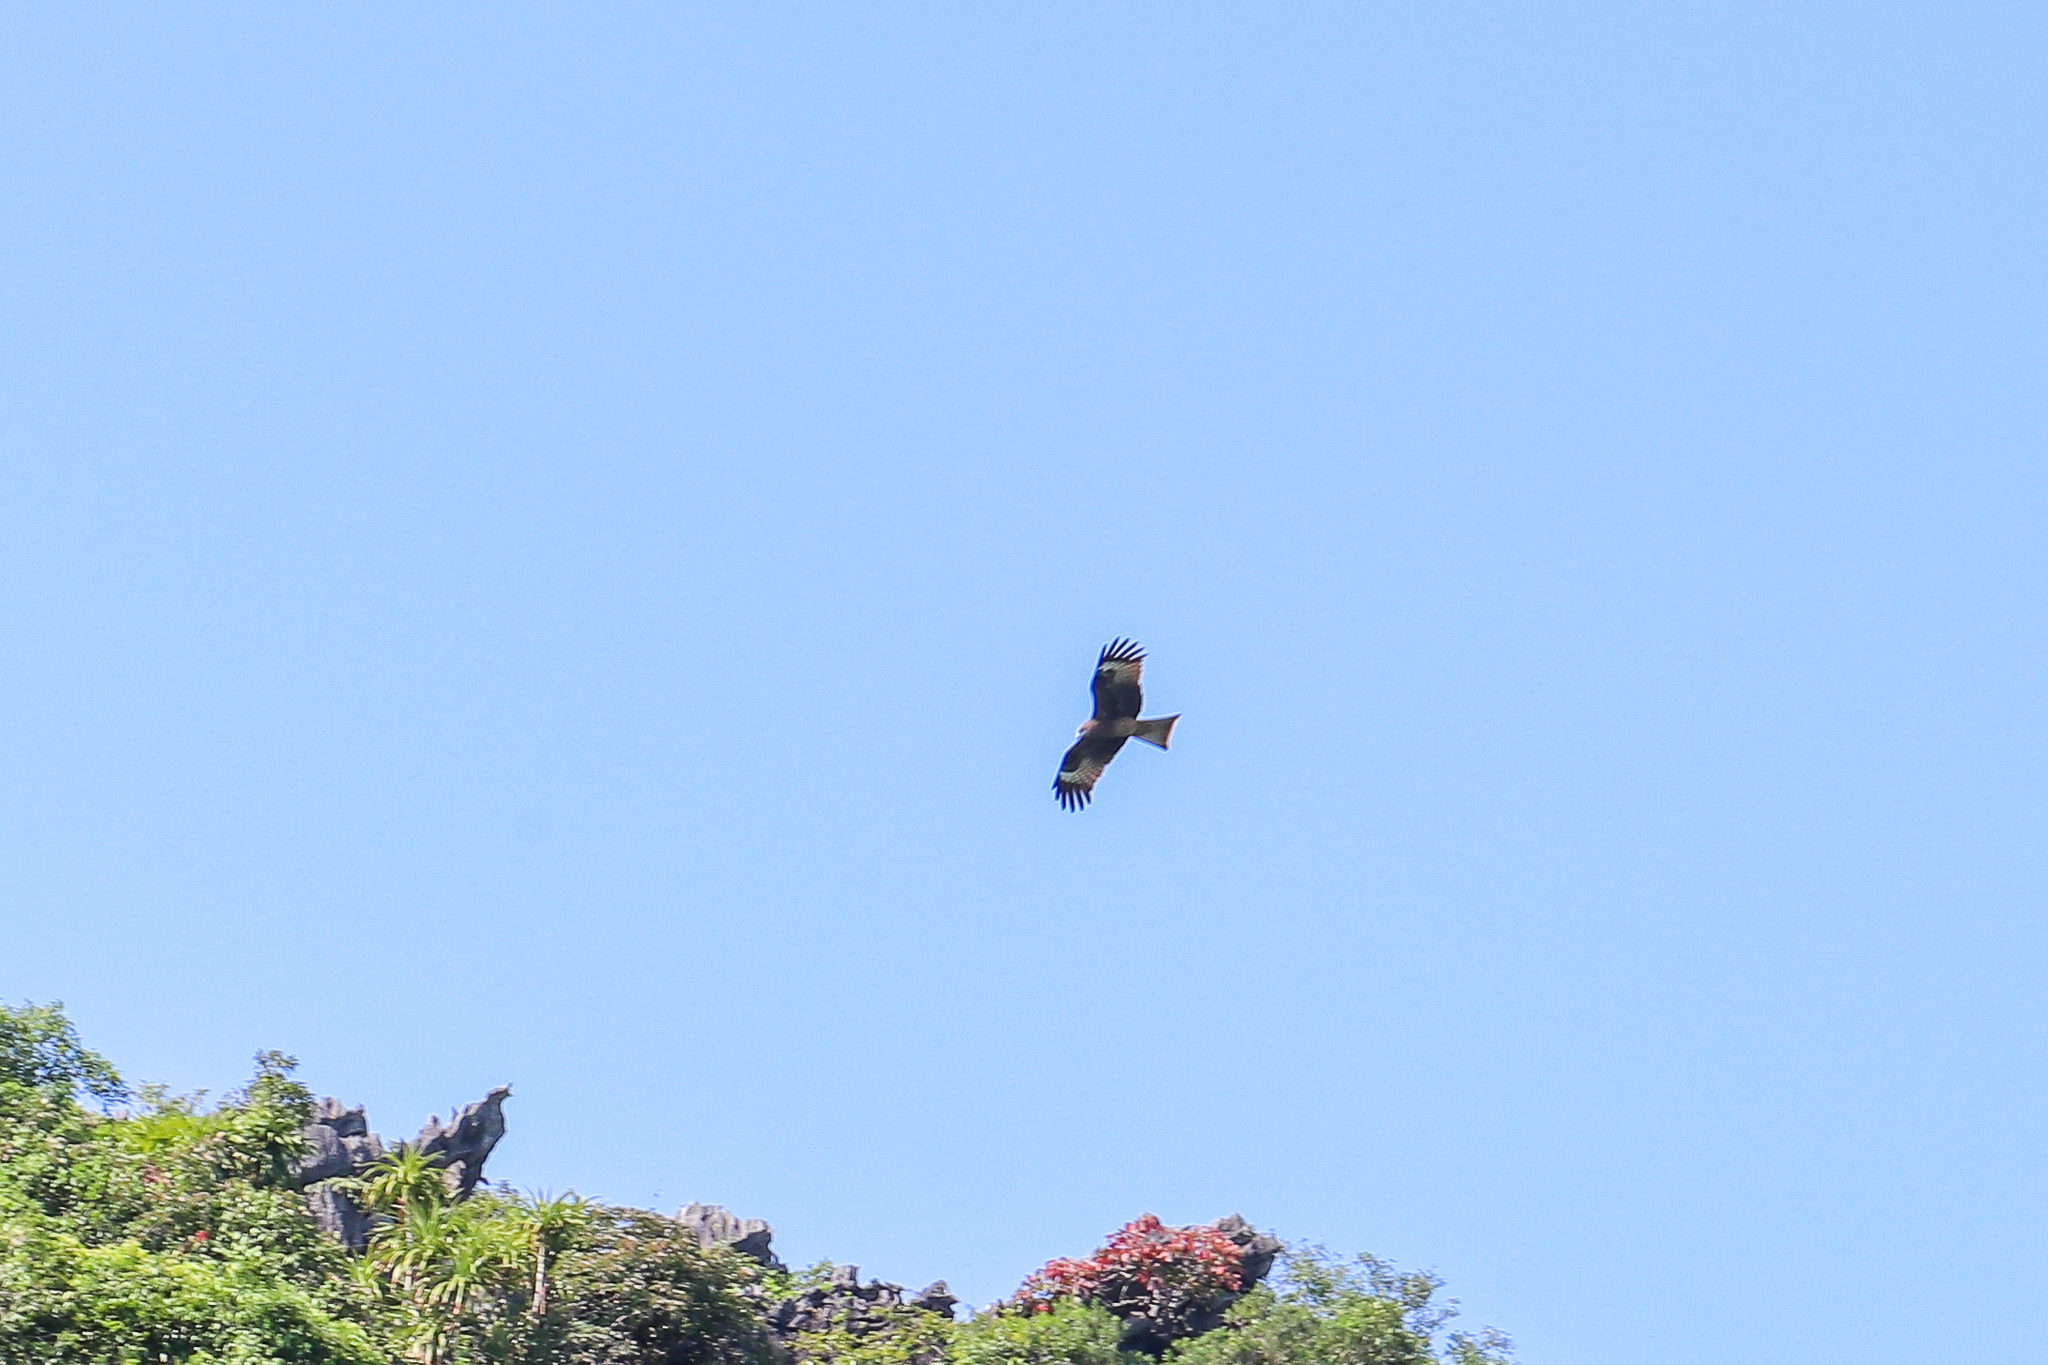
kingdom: Animalia
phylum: Chordata
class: Aves
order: Accipitriformes
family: Accipitridae
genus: Milvus
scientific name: Milvus migrans
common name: Black kite
